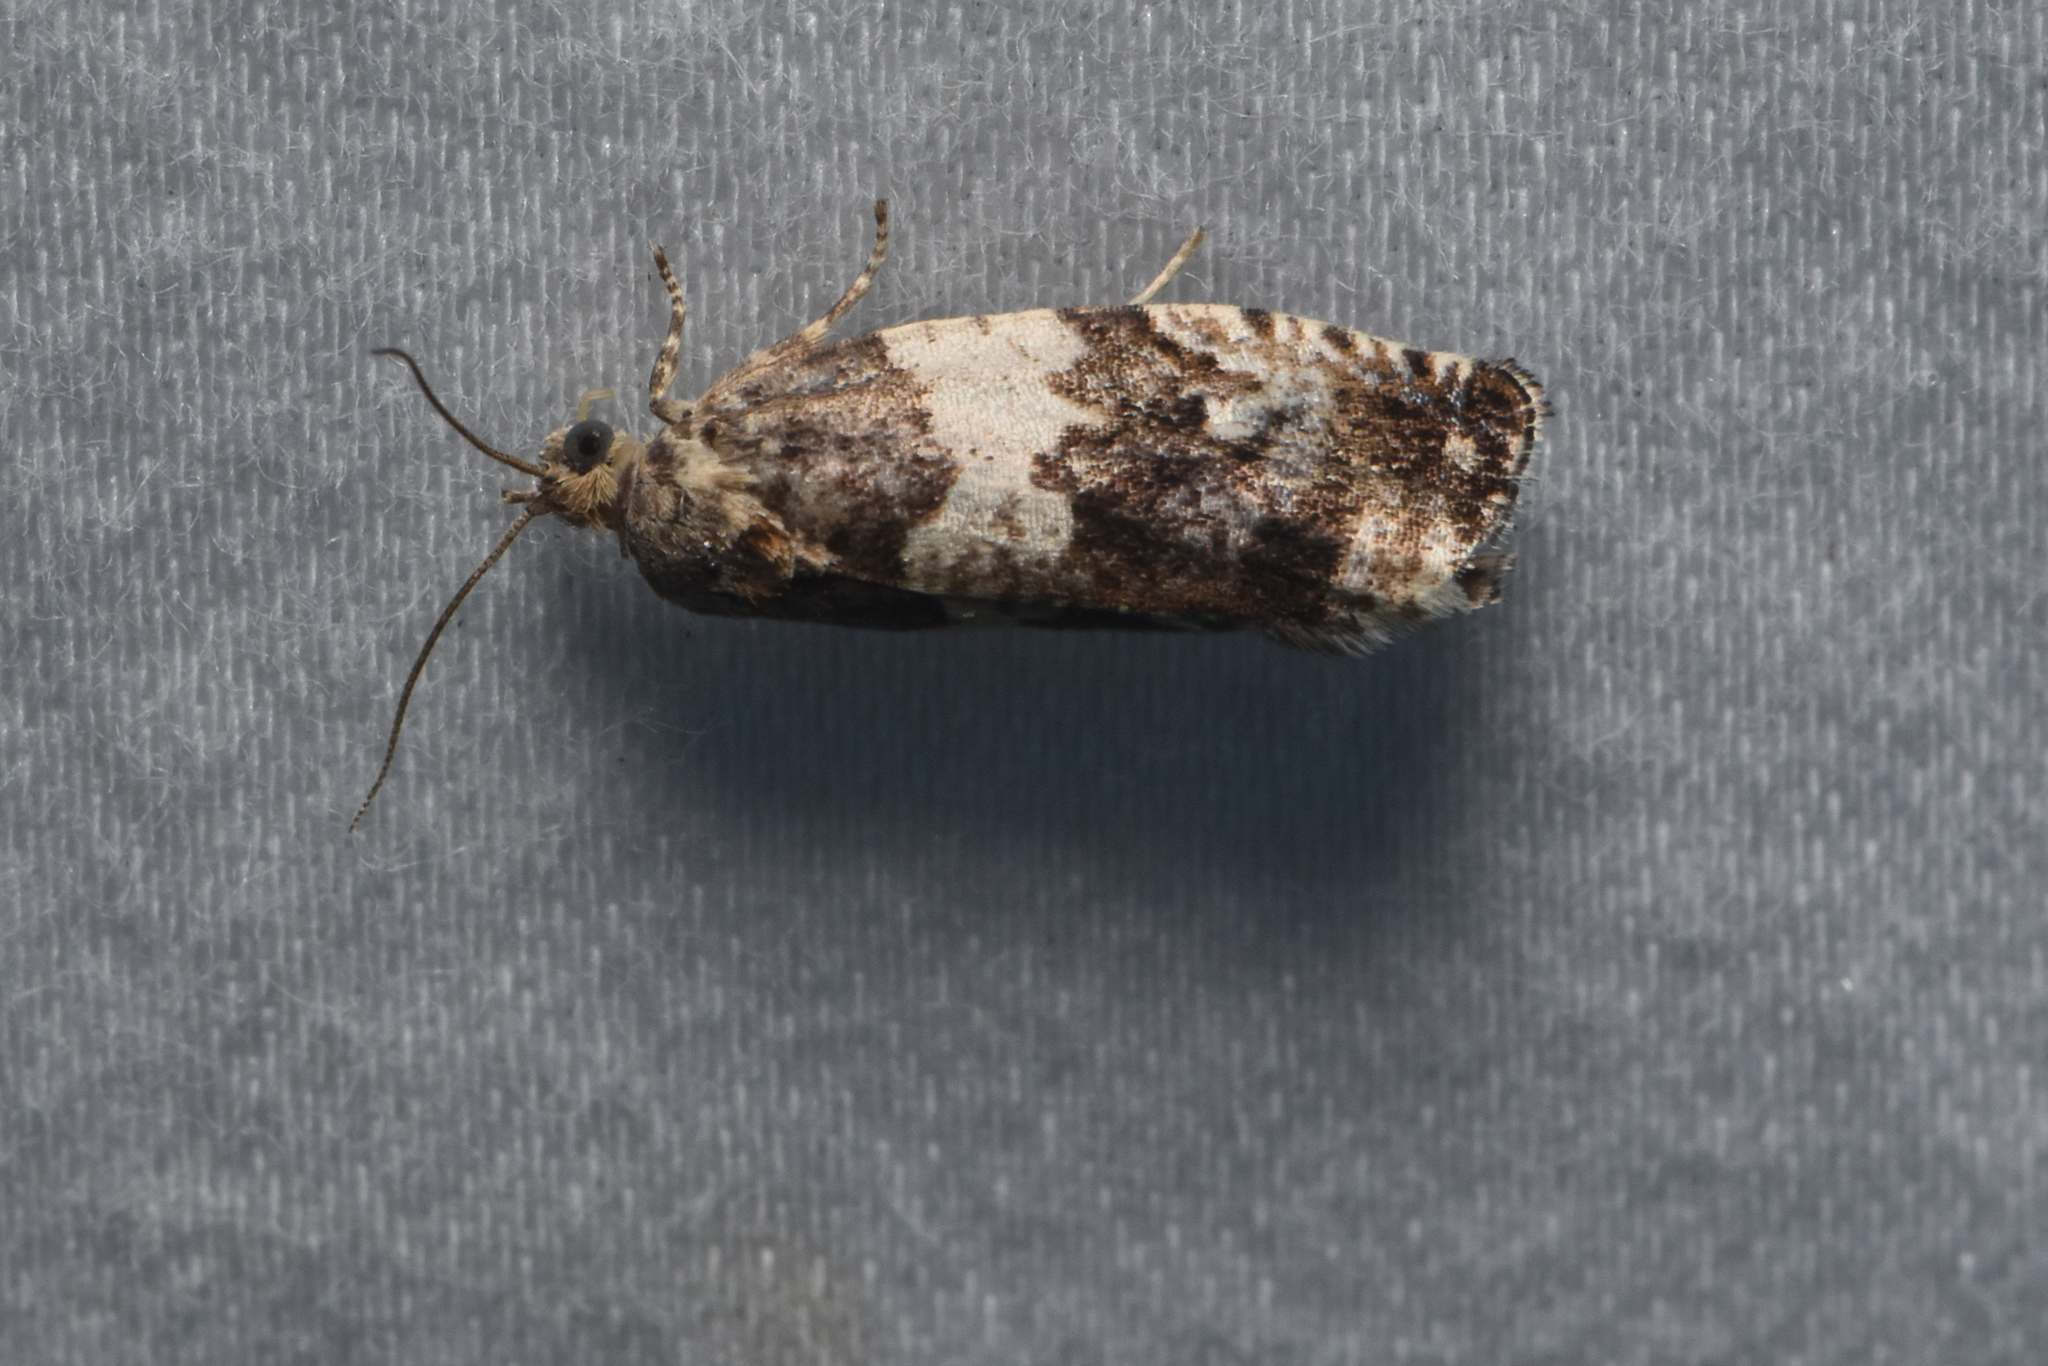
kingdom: Animalia
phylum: Arthropoda
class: Insecta
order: Lepidoptera
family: Tortricidae
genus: Pseudosciaphila
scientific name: Pseudosciaphila duplex
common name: Poplar leafroller moth
